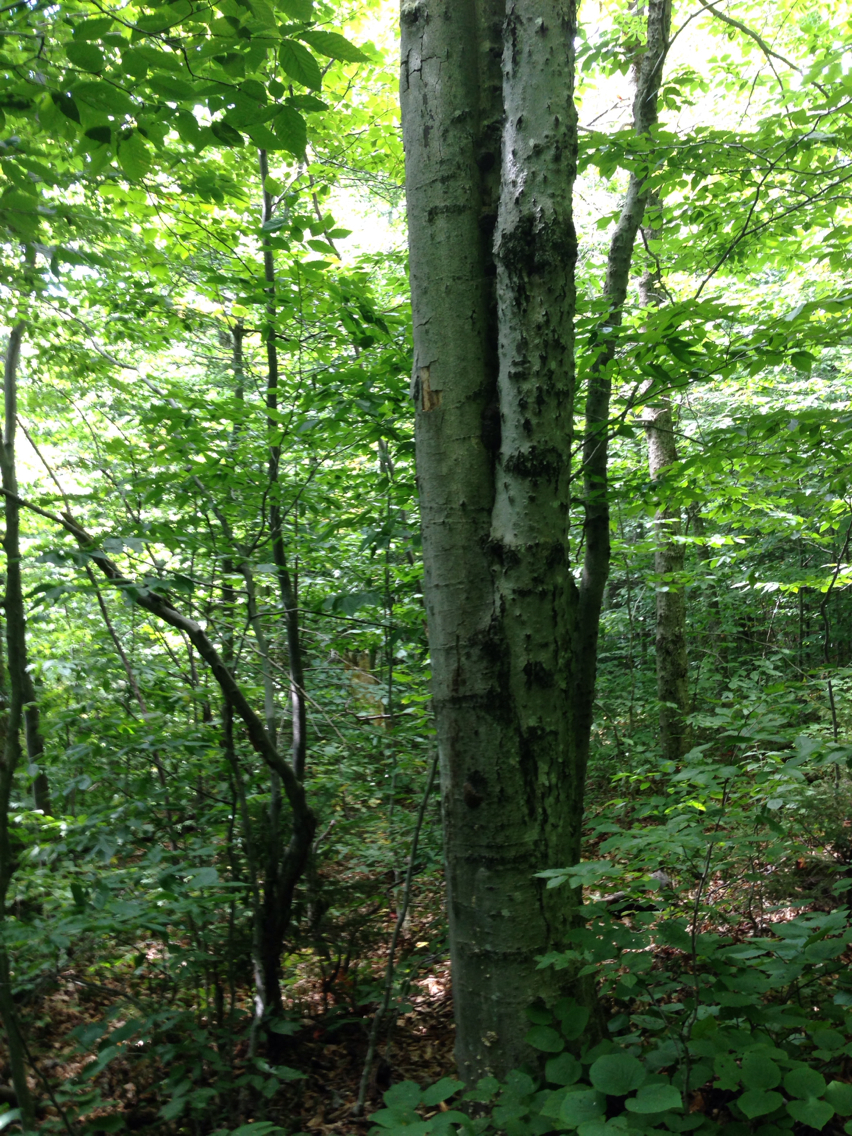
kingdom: Plantae
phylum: Tracheophyta
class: Magnoliopsida
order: Fagales
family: Fagaceae
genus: Fagus
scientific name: Fagus grandifolia
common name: American beech
